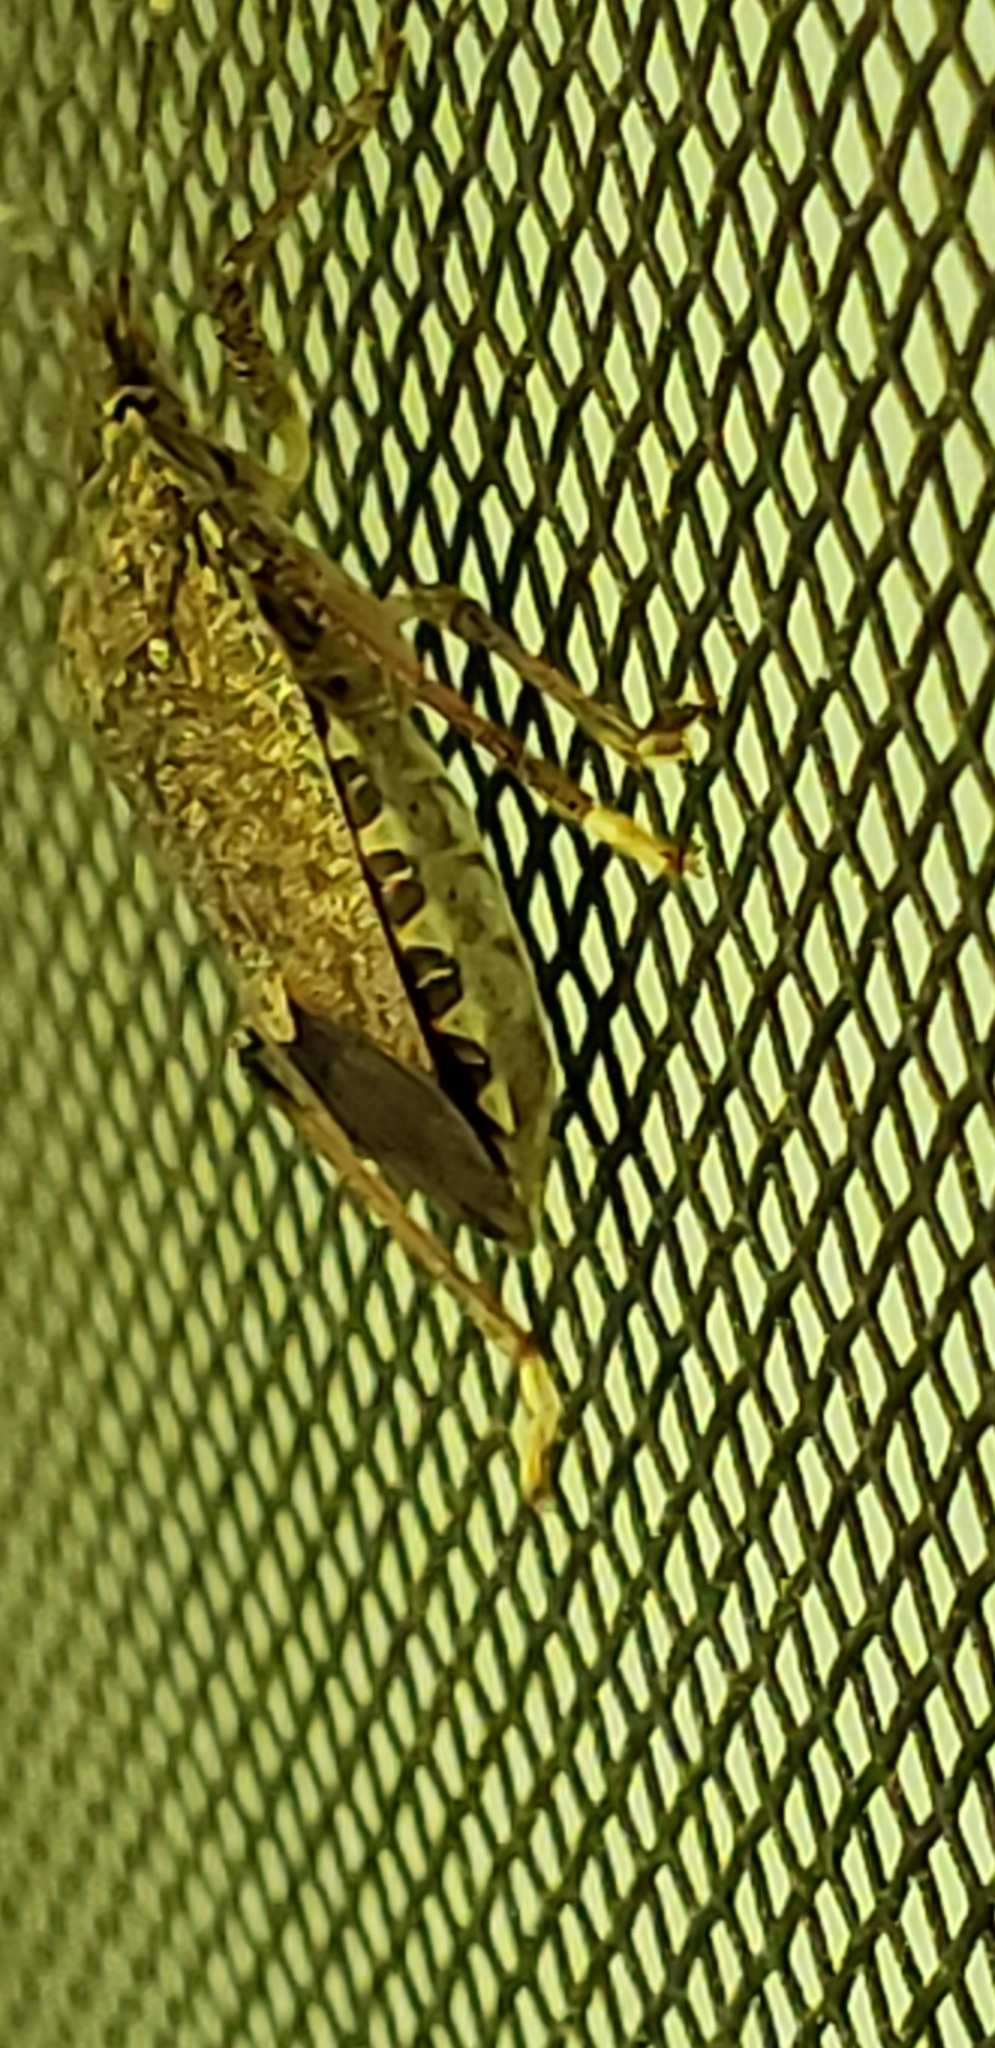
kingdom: Animalia
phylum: Arthropoda
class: Insecta
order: Hemiptera
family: Pentatomidae
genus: Halyomorpha
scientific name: Halyomorpha halys
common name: Brown marmorated stink bug
